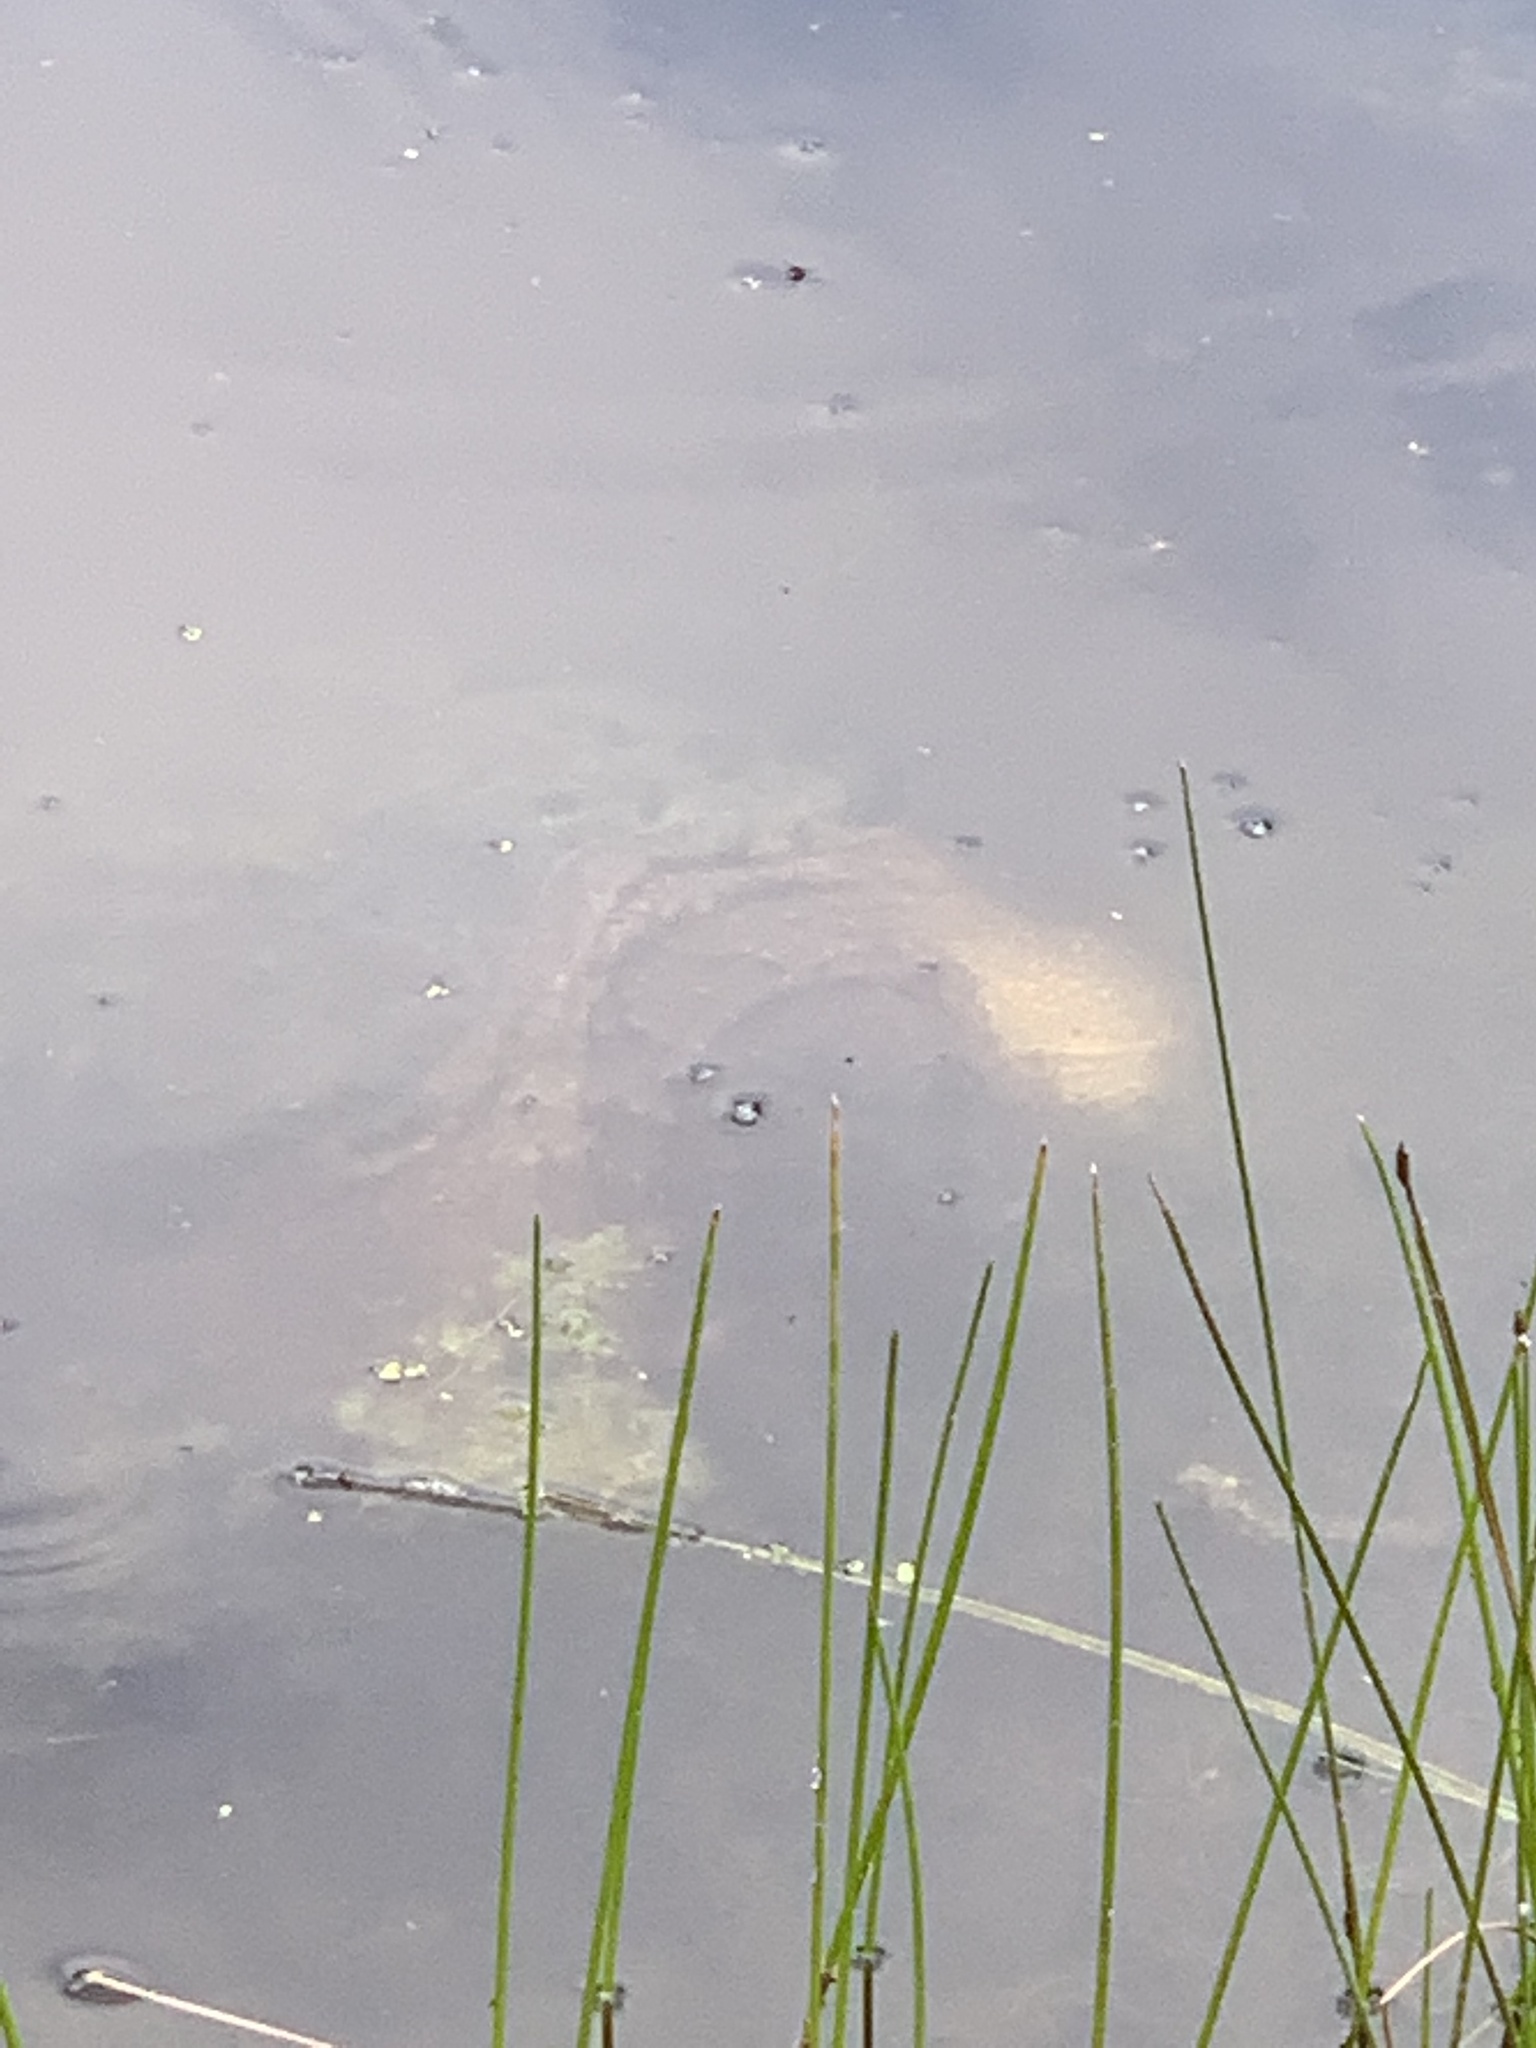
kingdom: Animalia
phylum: Chordata
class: Testudines
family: Chelydridae
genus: Chelydra
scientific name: Chelydra serpentina
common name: Common snapping turtle
